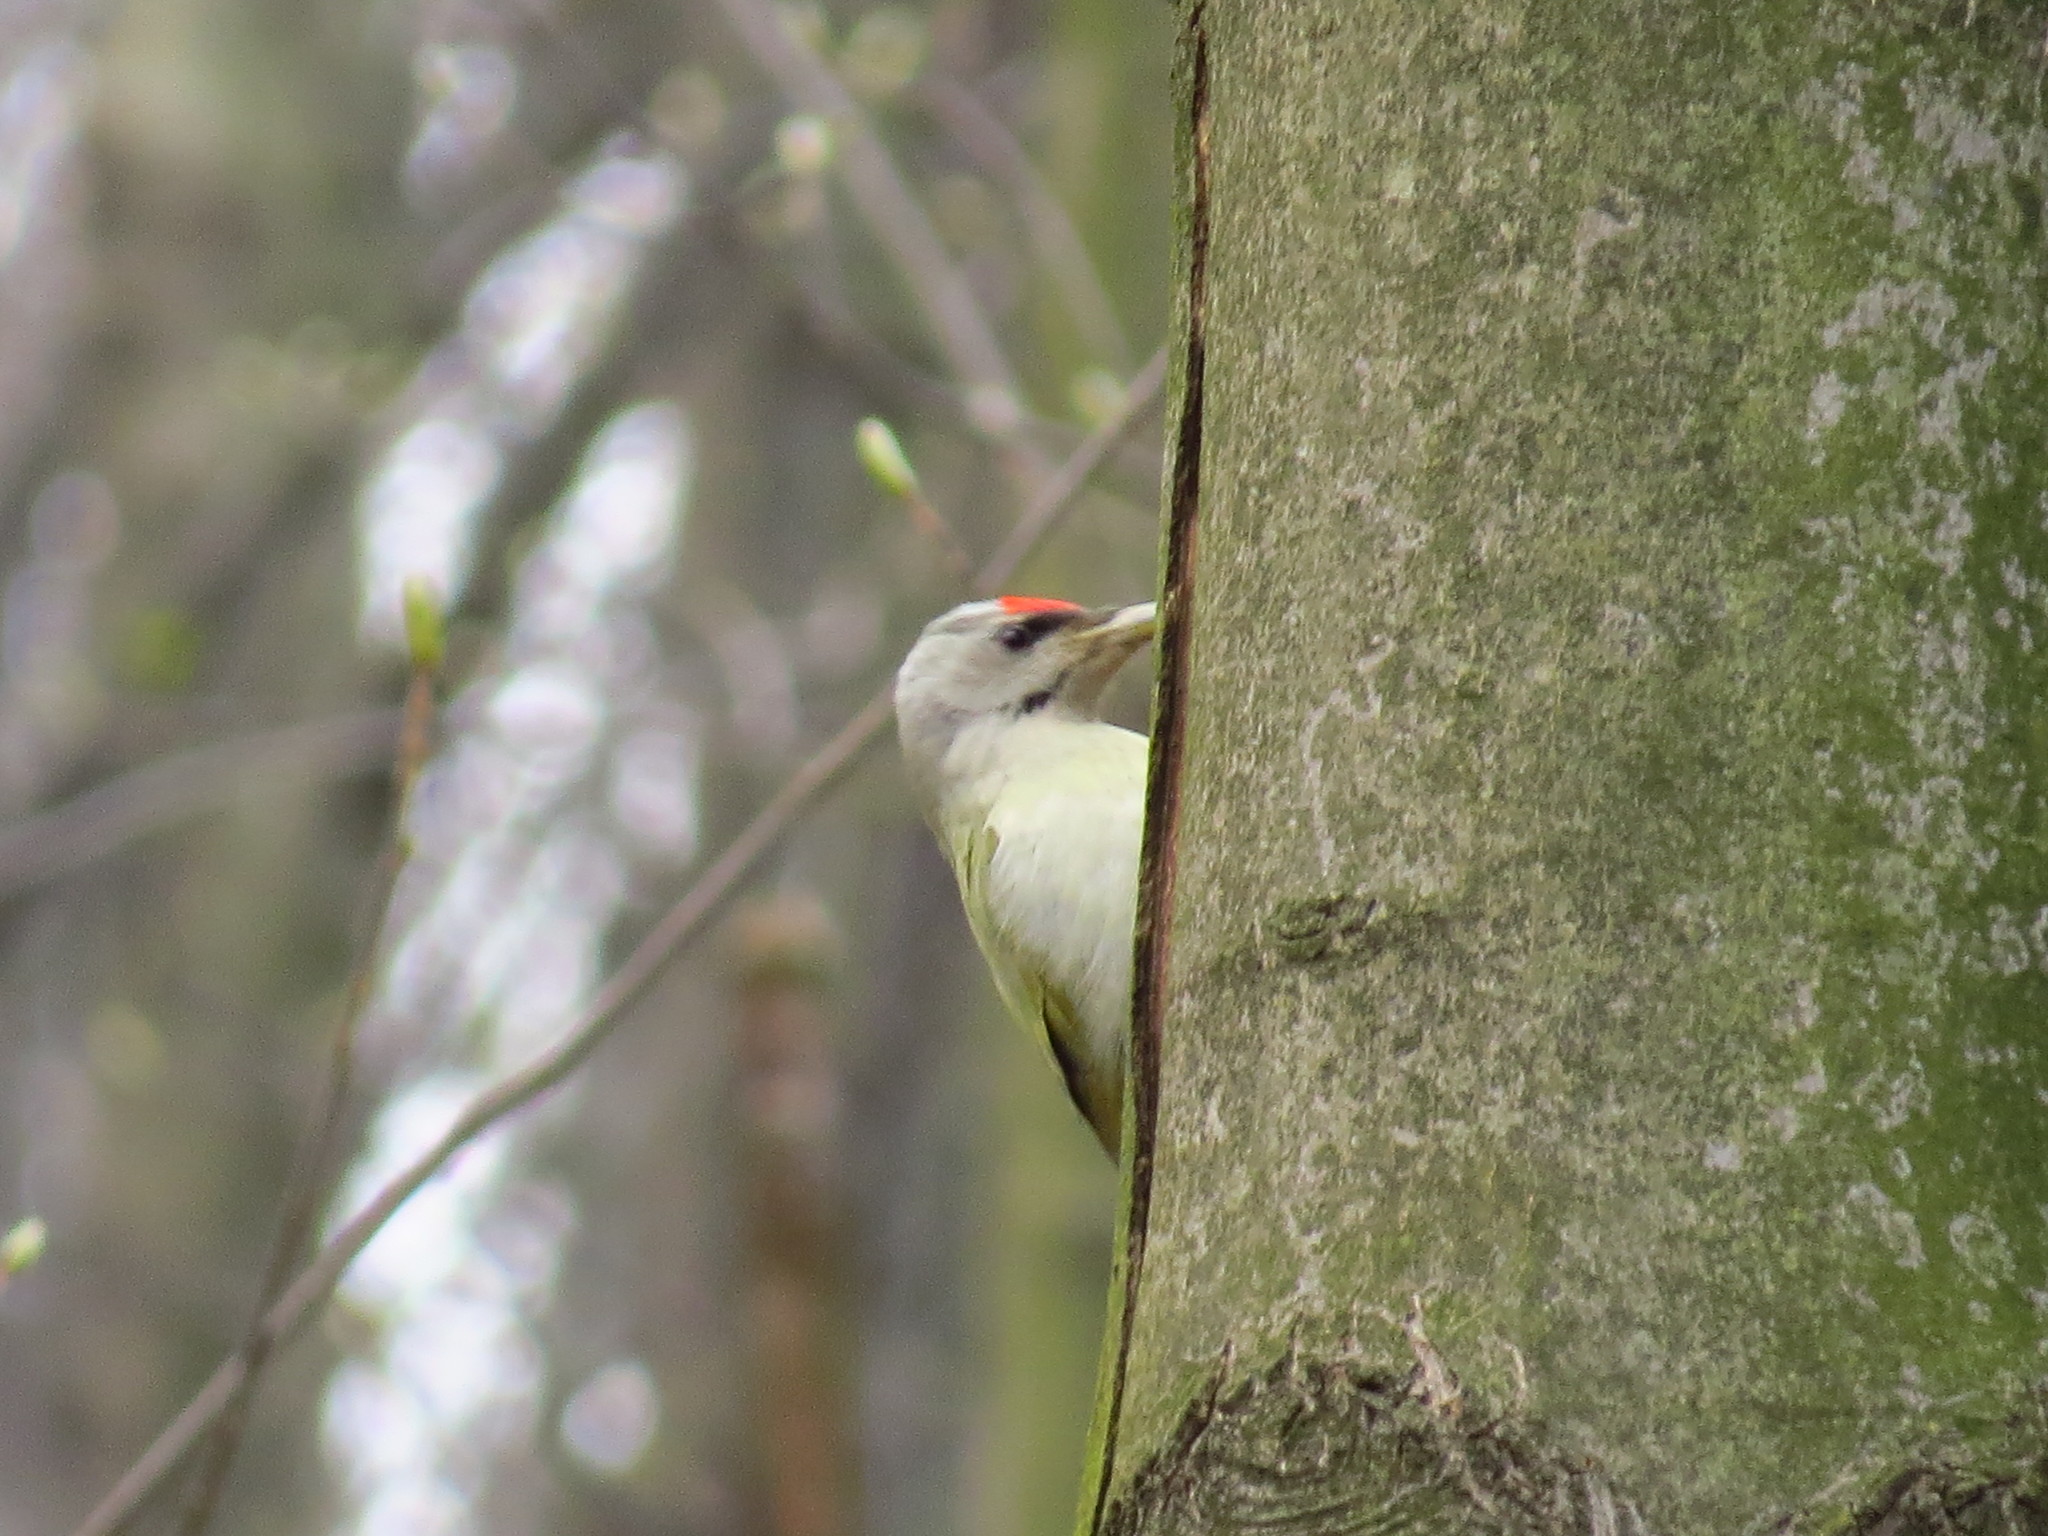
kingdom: Animalia
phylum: Chordata
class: Aves
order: Piciformes
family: Picidae
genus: Picus
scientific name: Picus canus
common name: Grey-headed woodpecker
